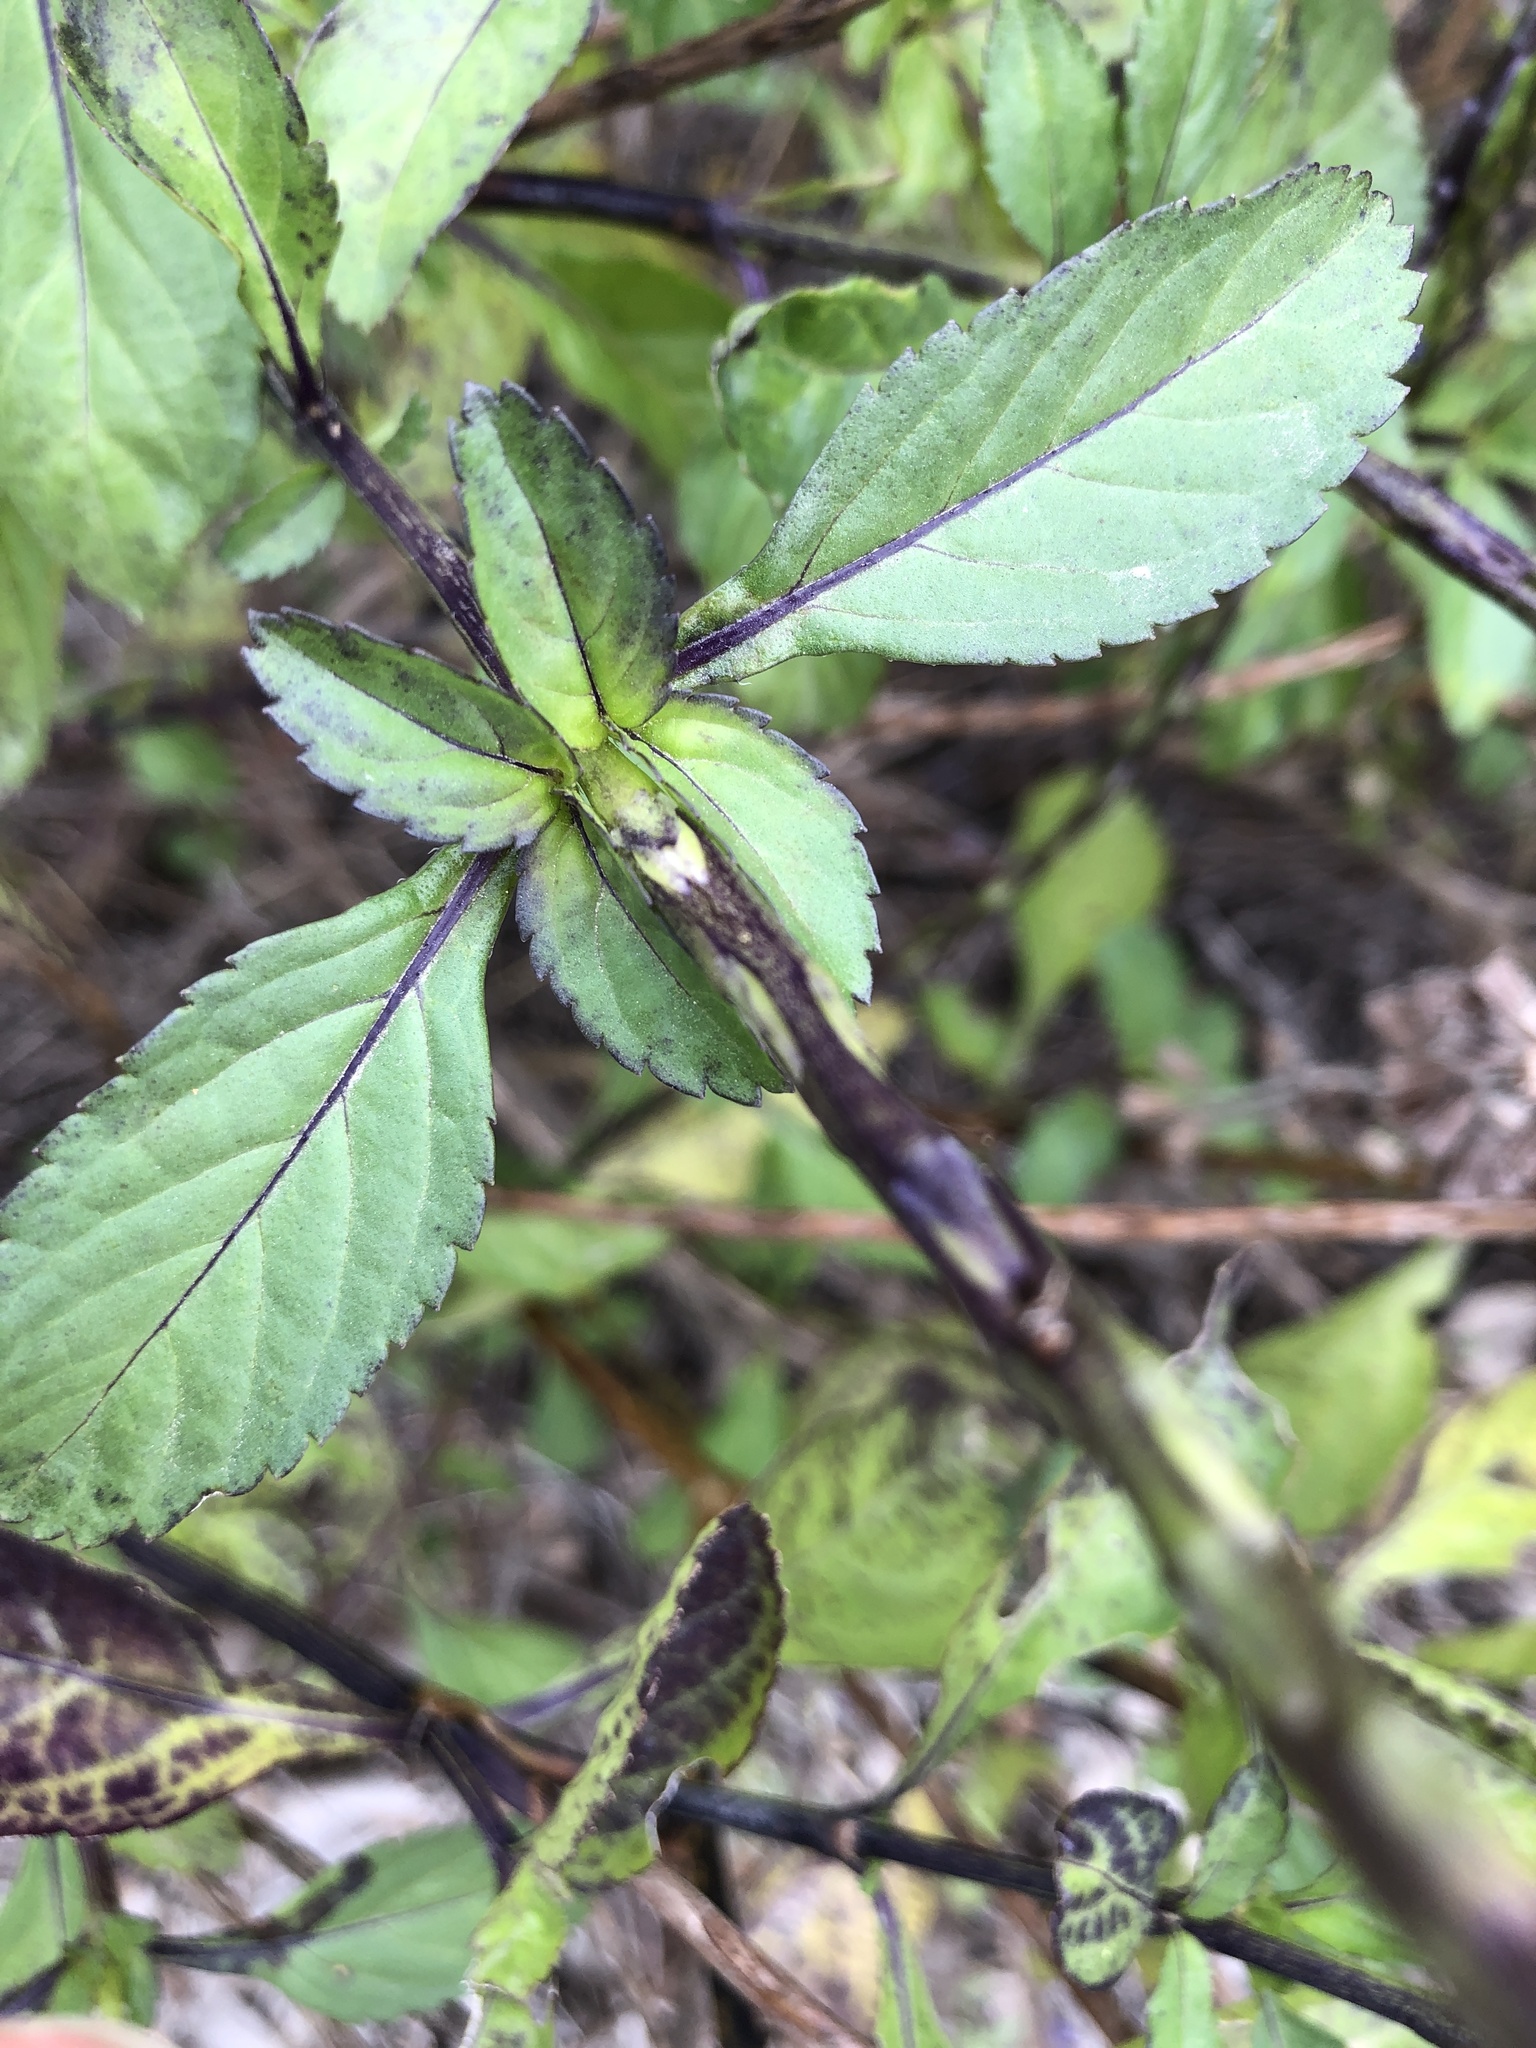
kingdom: Plantae
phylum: Tracheophyta
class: Magnoliopsida
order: Lamiales
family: Verbenaceae
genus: Stachytarpheta
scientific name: Stachytarpheta jamaicensis
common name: Light-blue snakeweed
